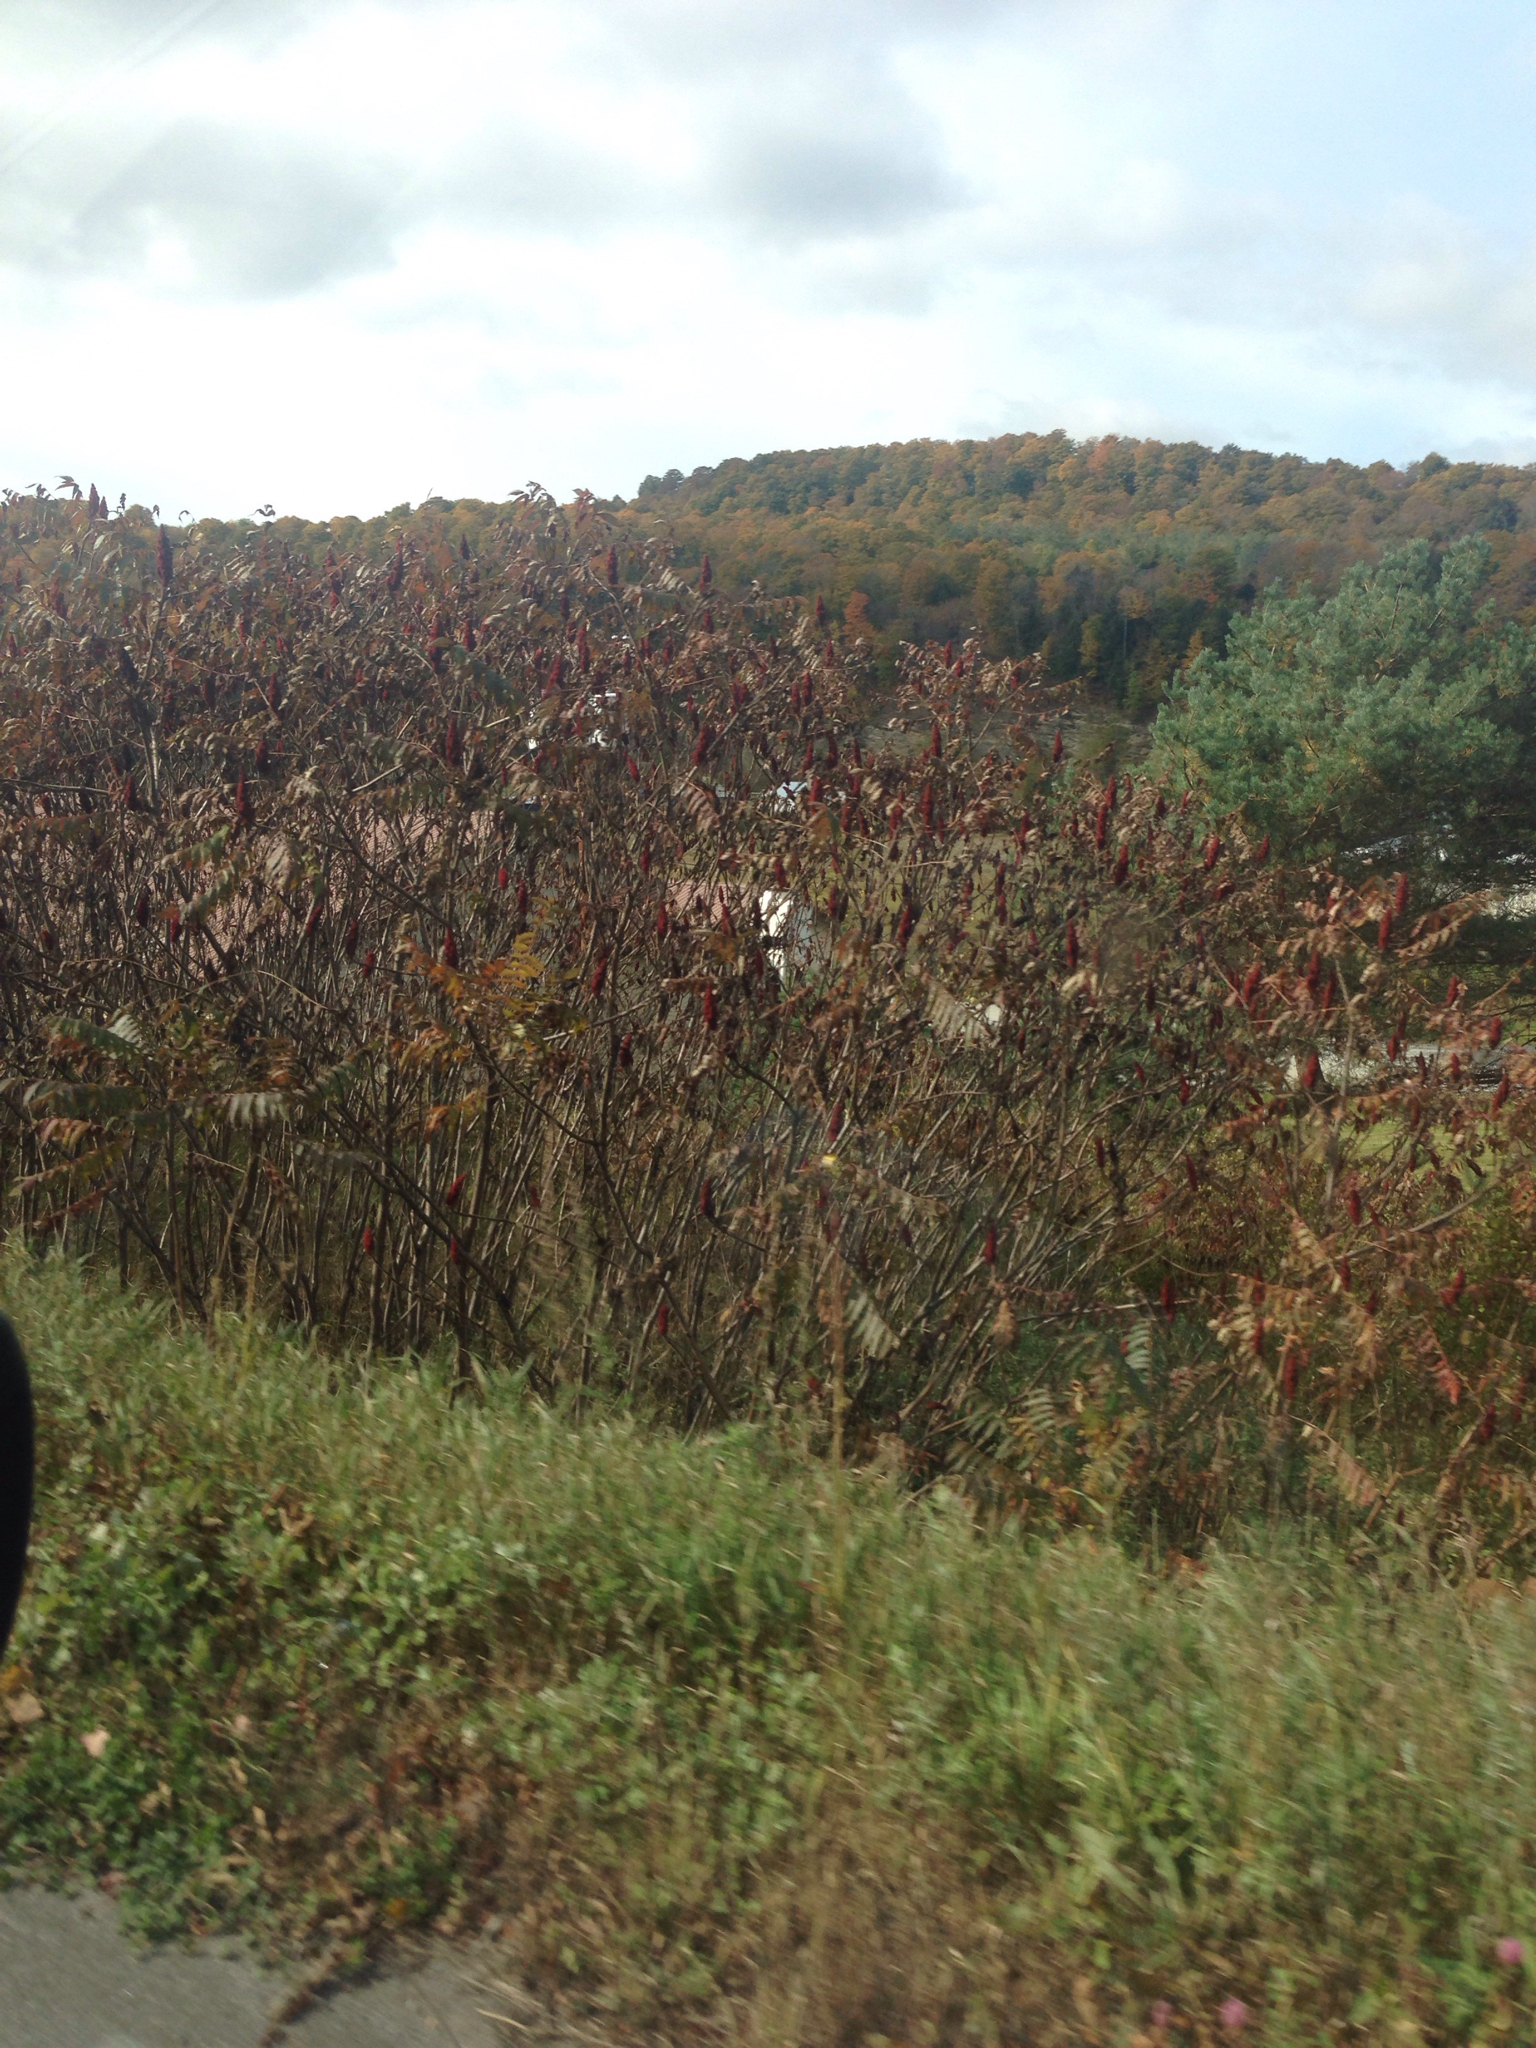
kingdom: Plantae
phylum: Tracheophyta
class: Magnoliopsida
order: Sapindales
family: Anacardiaceae
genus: Rhus
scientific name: Rhus typhina
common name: Staghorn sumac
